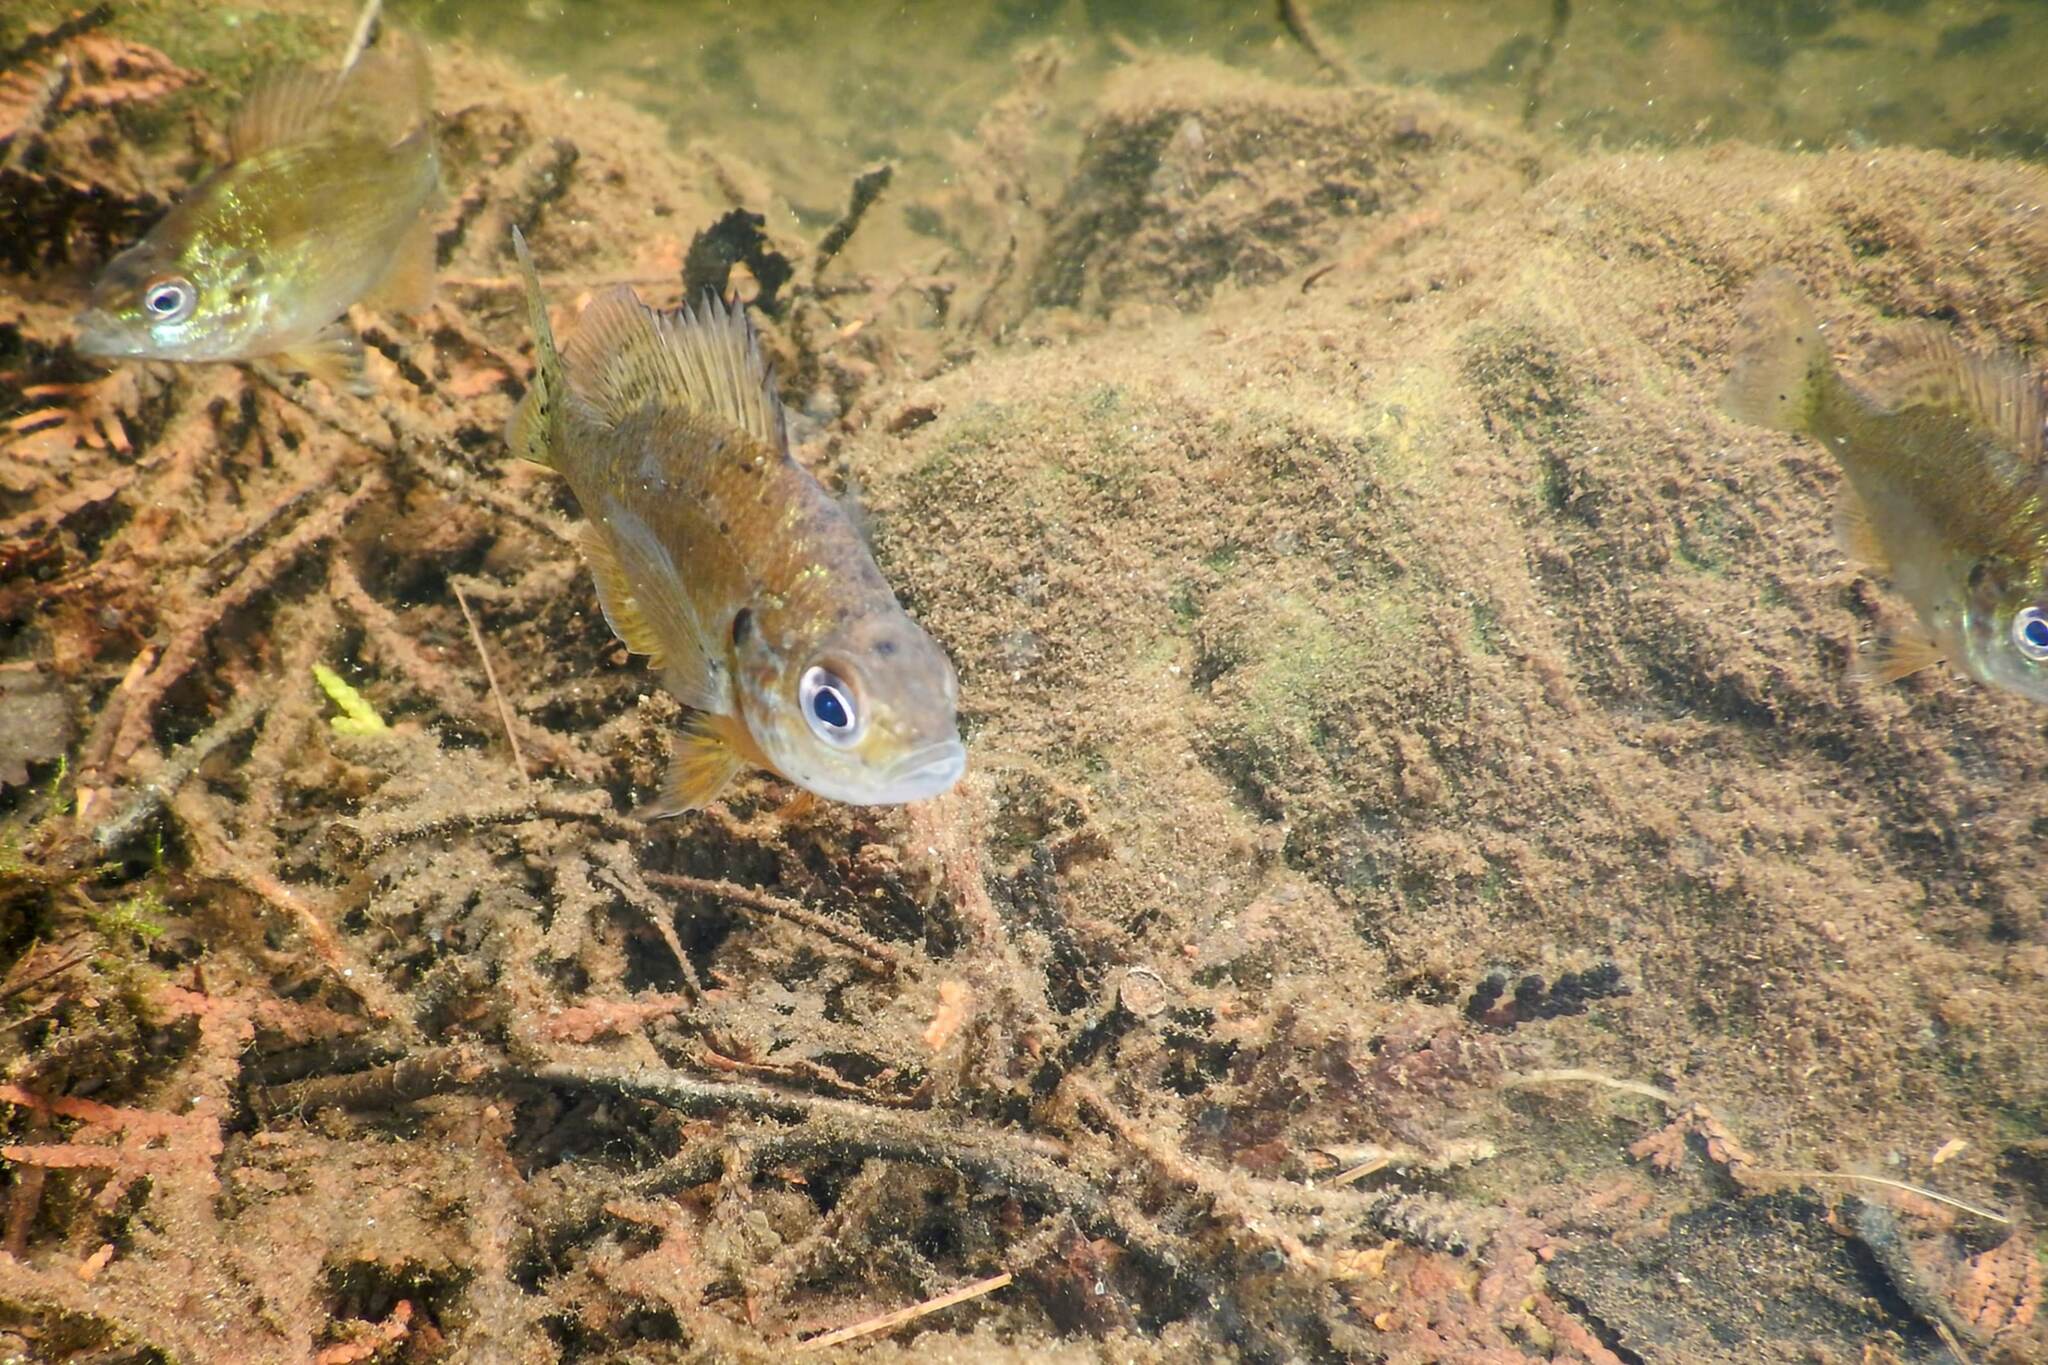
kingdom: Animalia
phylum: Chordata
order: Perciformes
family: Centrarchidae
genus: Lepomis
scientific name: Lepomis gibbosus
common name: Pumpkinseed
